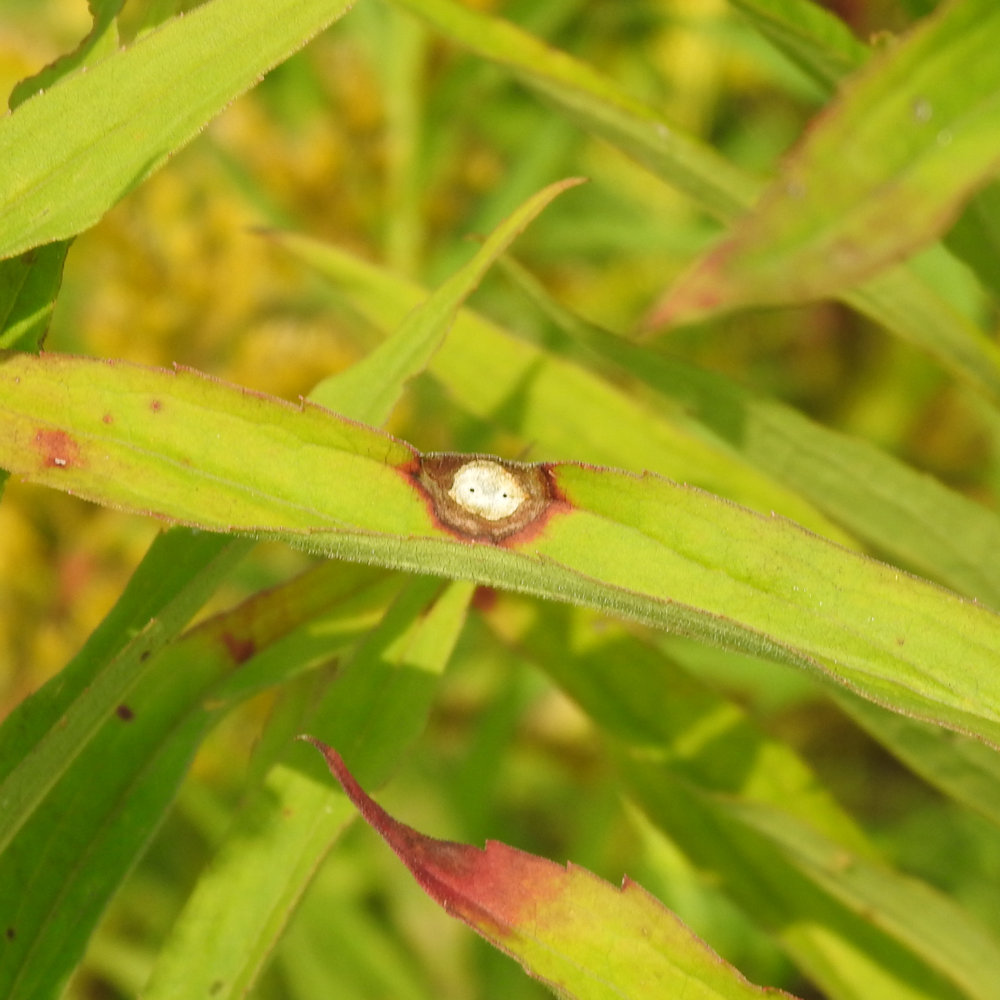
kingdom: Animalia
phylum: Arthropoda
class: Insecta
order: Diptera
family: Cecidomyiidae
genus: Asteromyia
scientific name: Asteromyia carbonifera
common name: Carbonifera goldenrod gall midge
